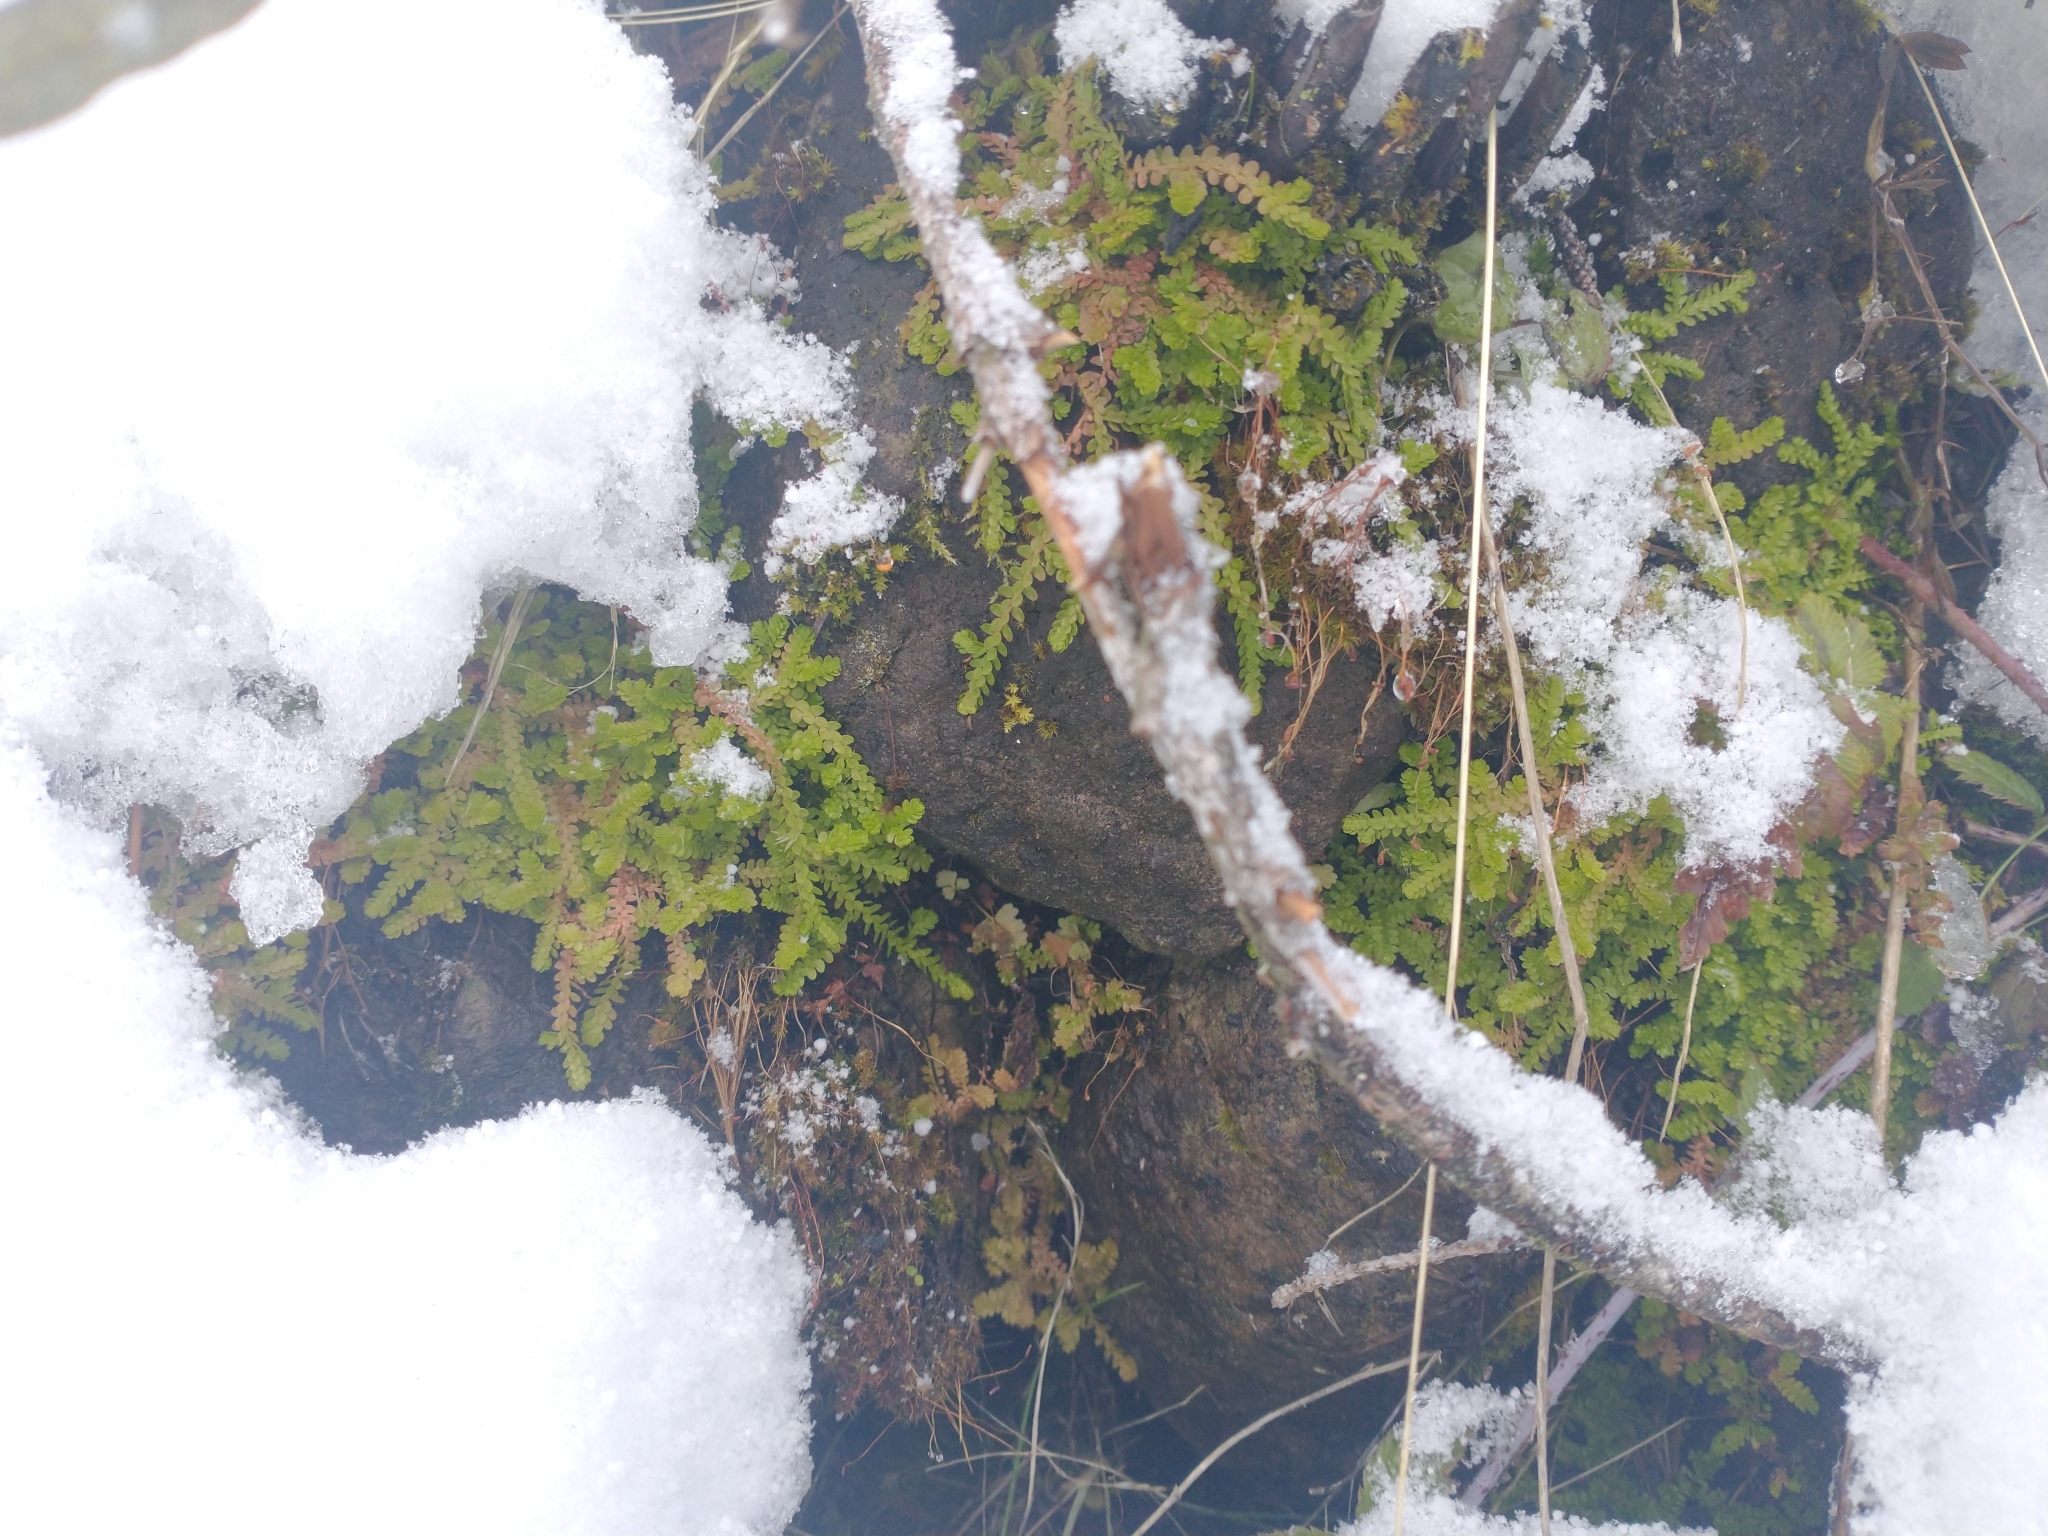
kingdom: Plantae
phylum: Tracheophyta
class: Lycopodiopsida
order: Selaginellales
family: Selaginellaceae
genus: Selaginella
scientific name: Selaginella douglasii
